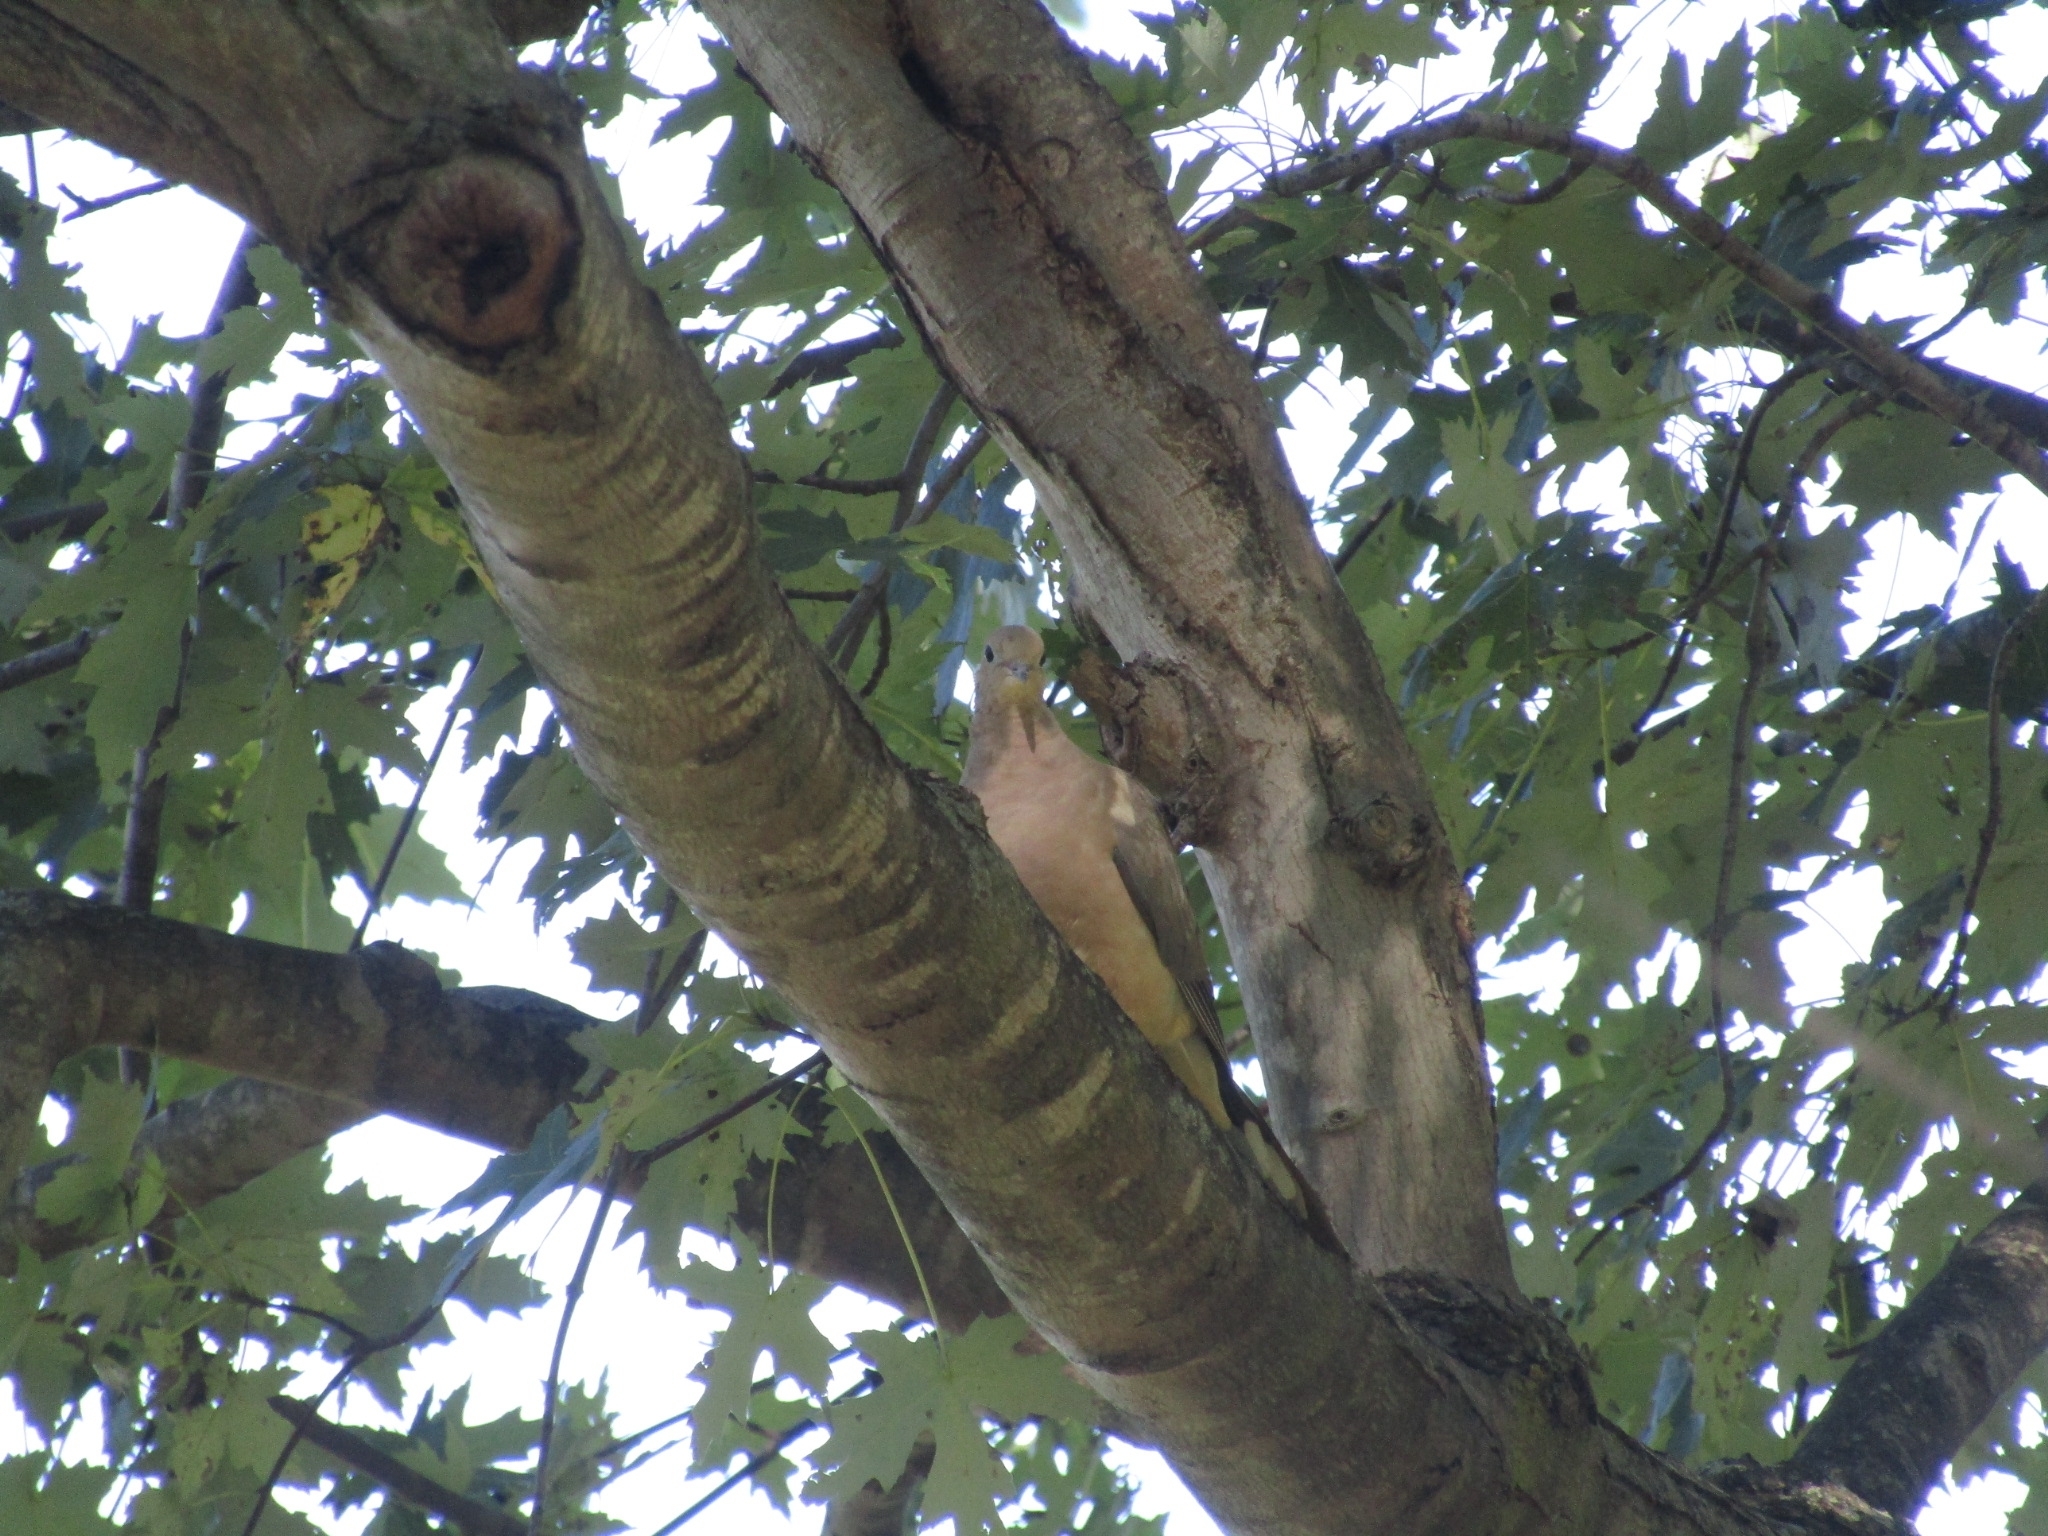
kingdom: Animalia
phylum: Chordata
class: Aves
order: Columbiformes
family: Columbidae
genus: Zenaida
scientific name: Zenaida macroura
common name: Mourning dove
